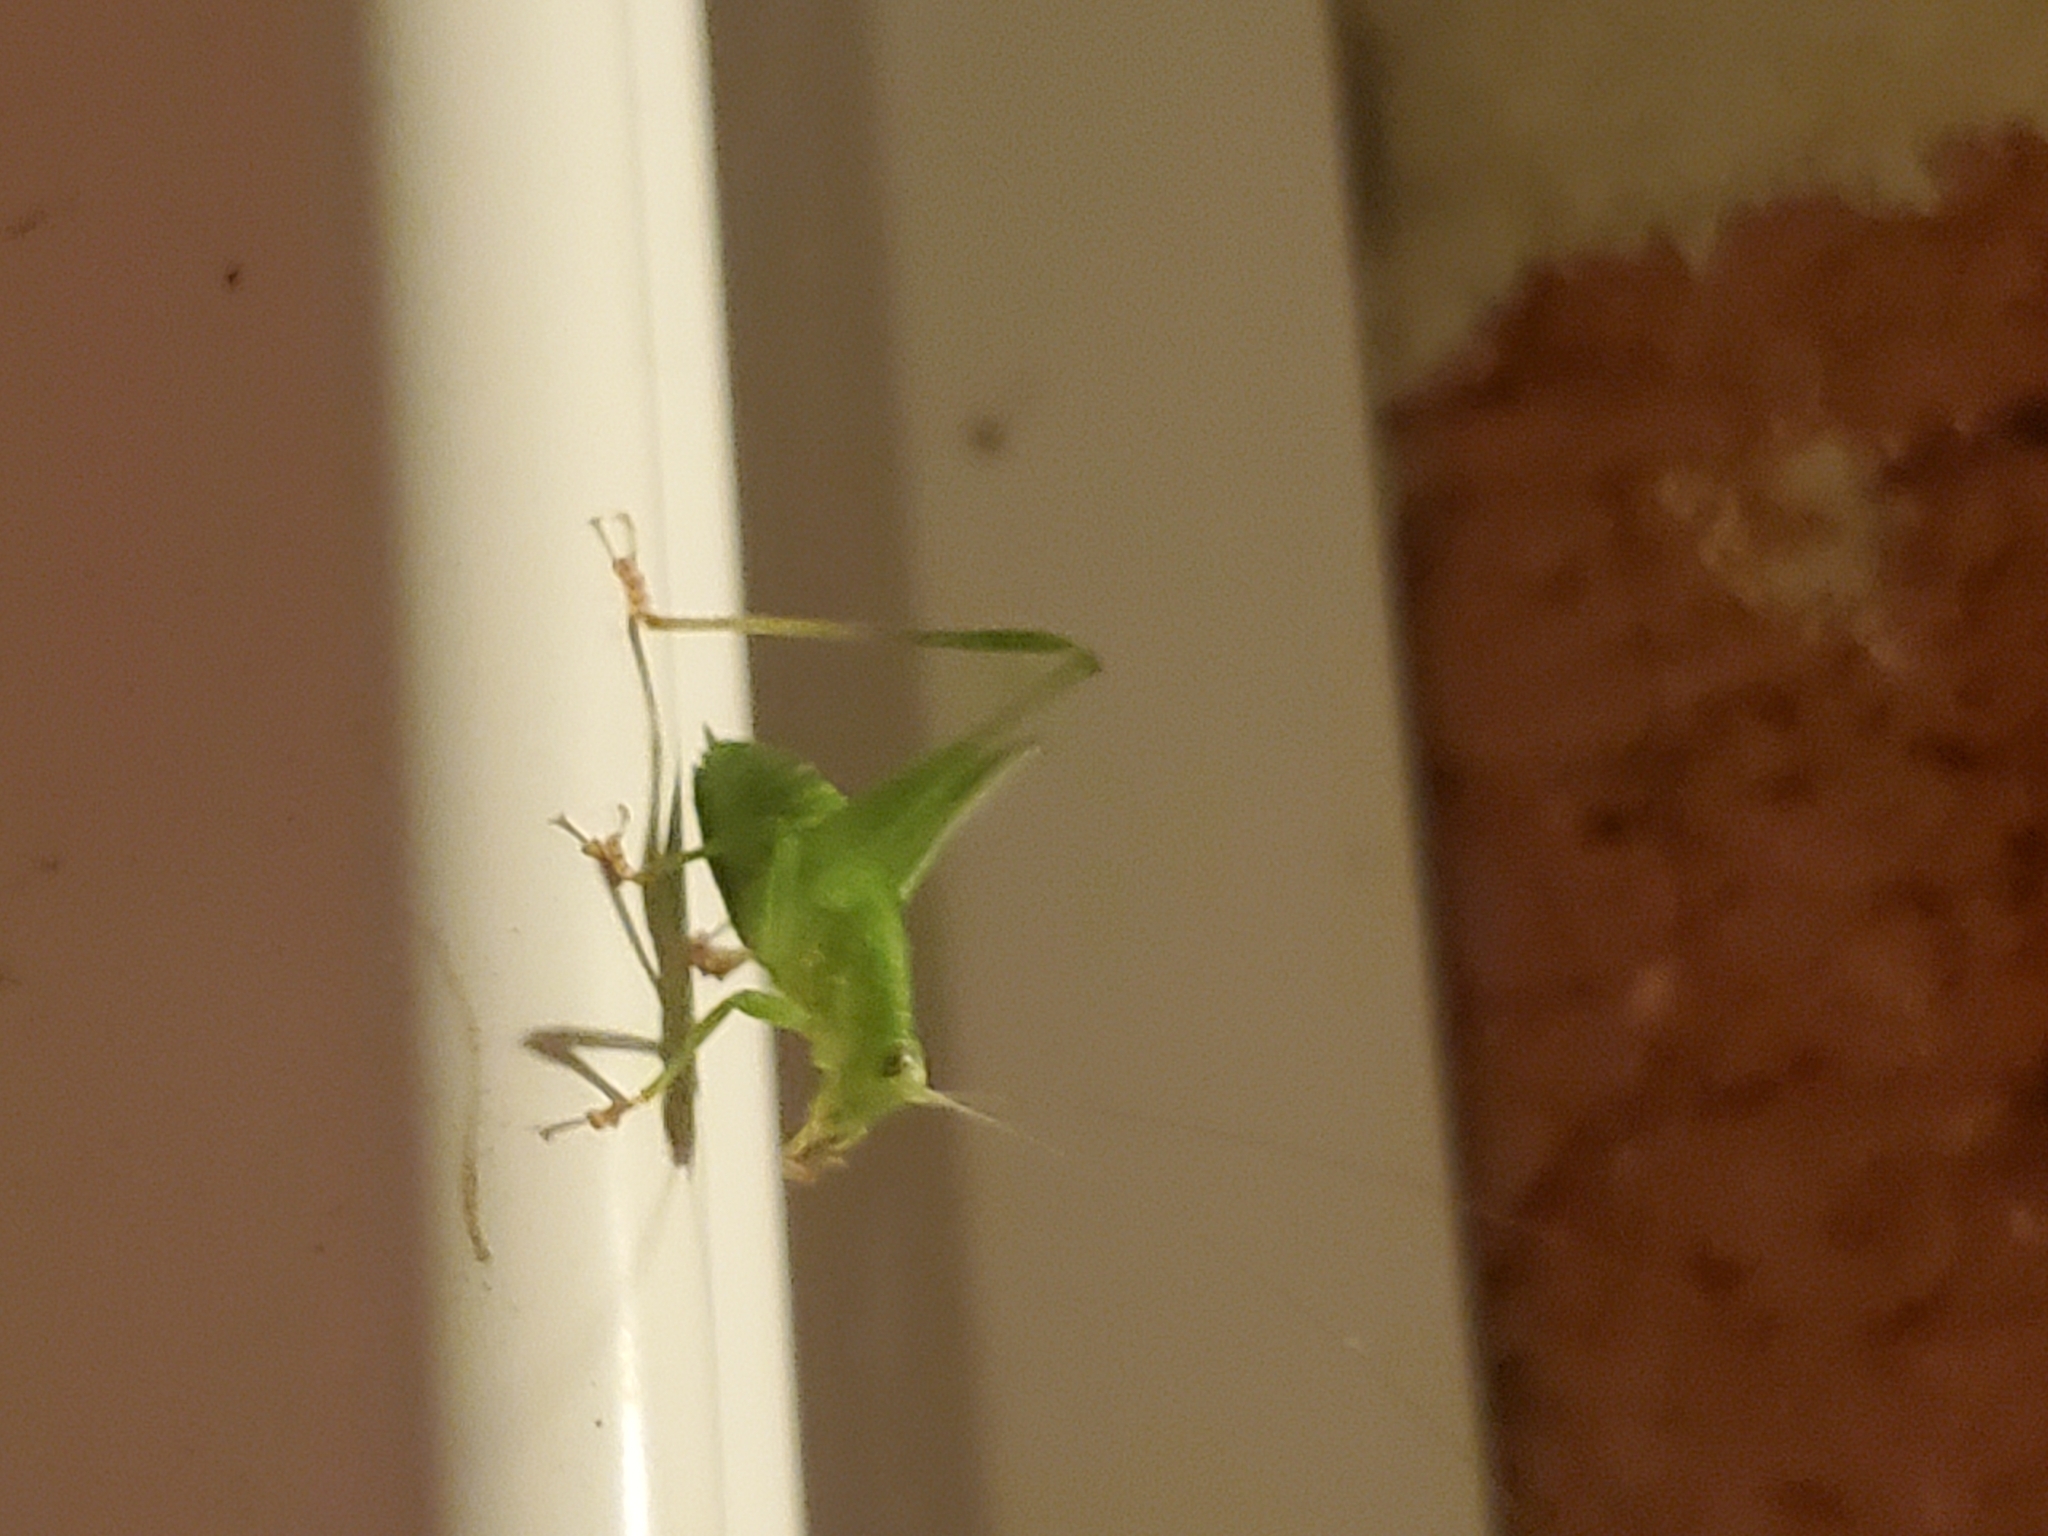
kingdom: Animalia
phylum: Arthropoda
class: Insecta
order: Orthoptera
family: Tettigoniidae
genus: Montezumina
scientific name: Montezumina modesta
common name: Modest katydid
